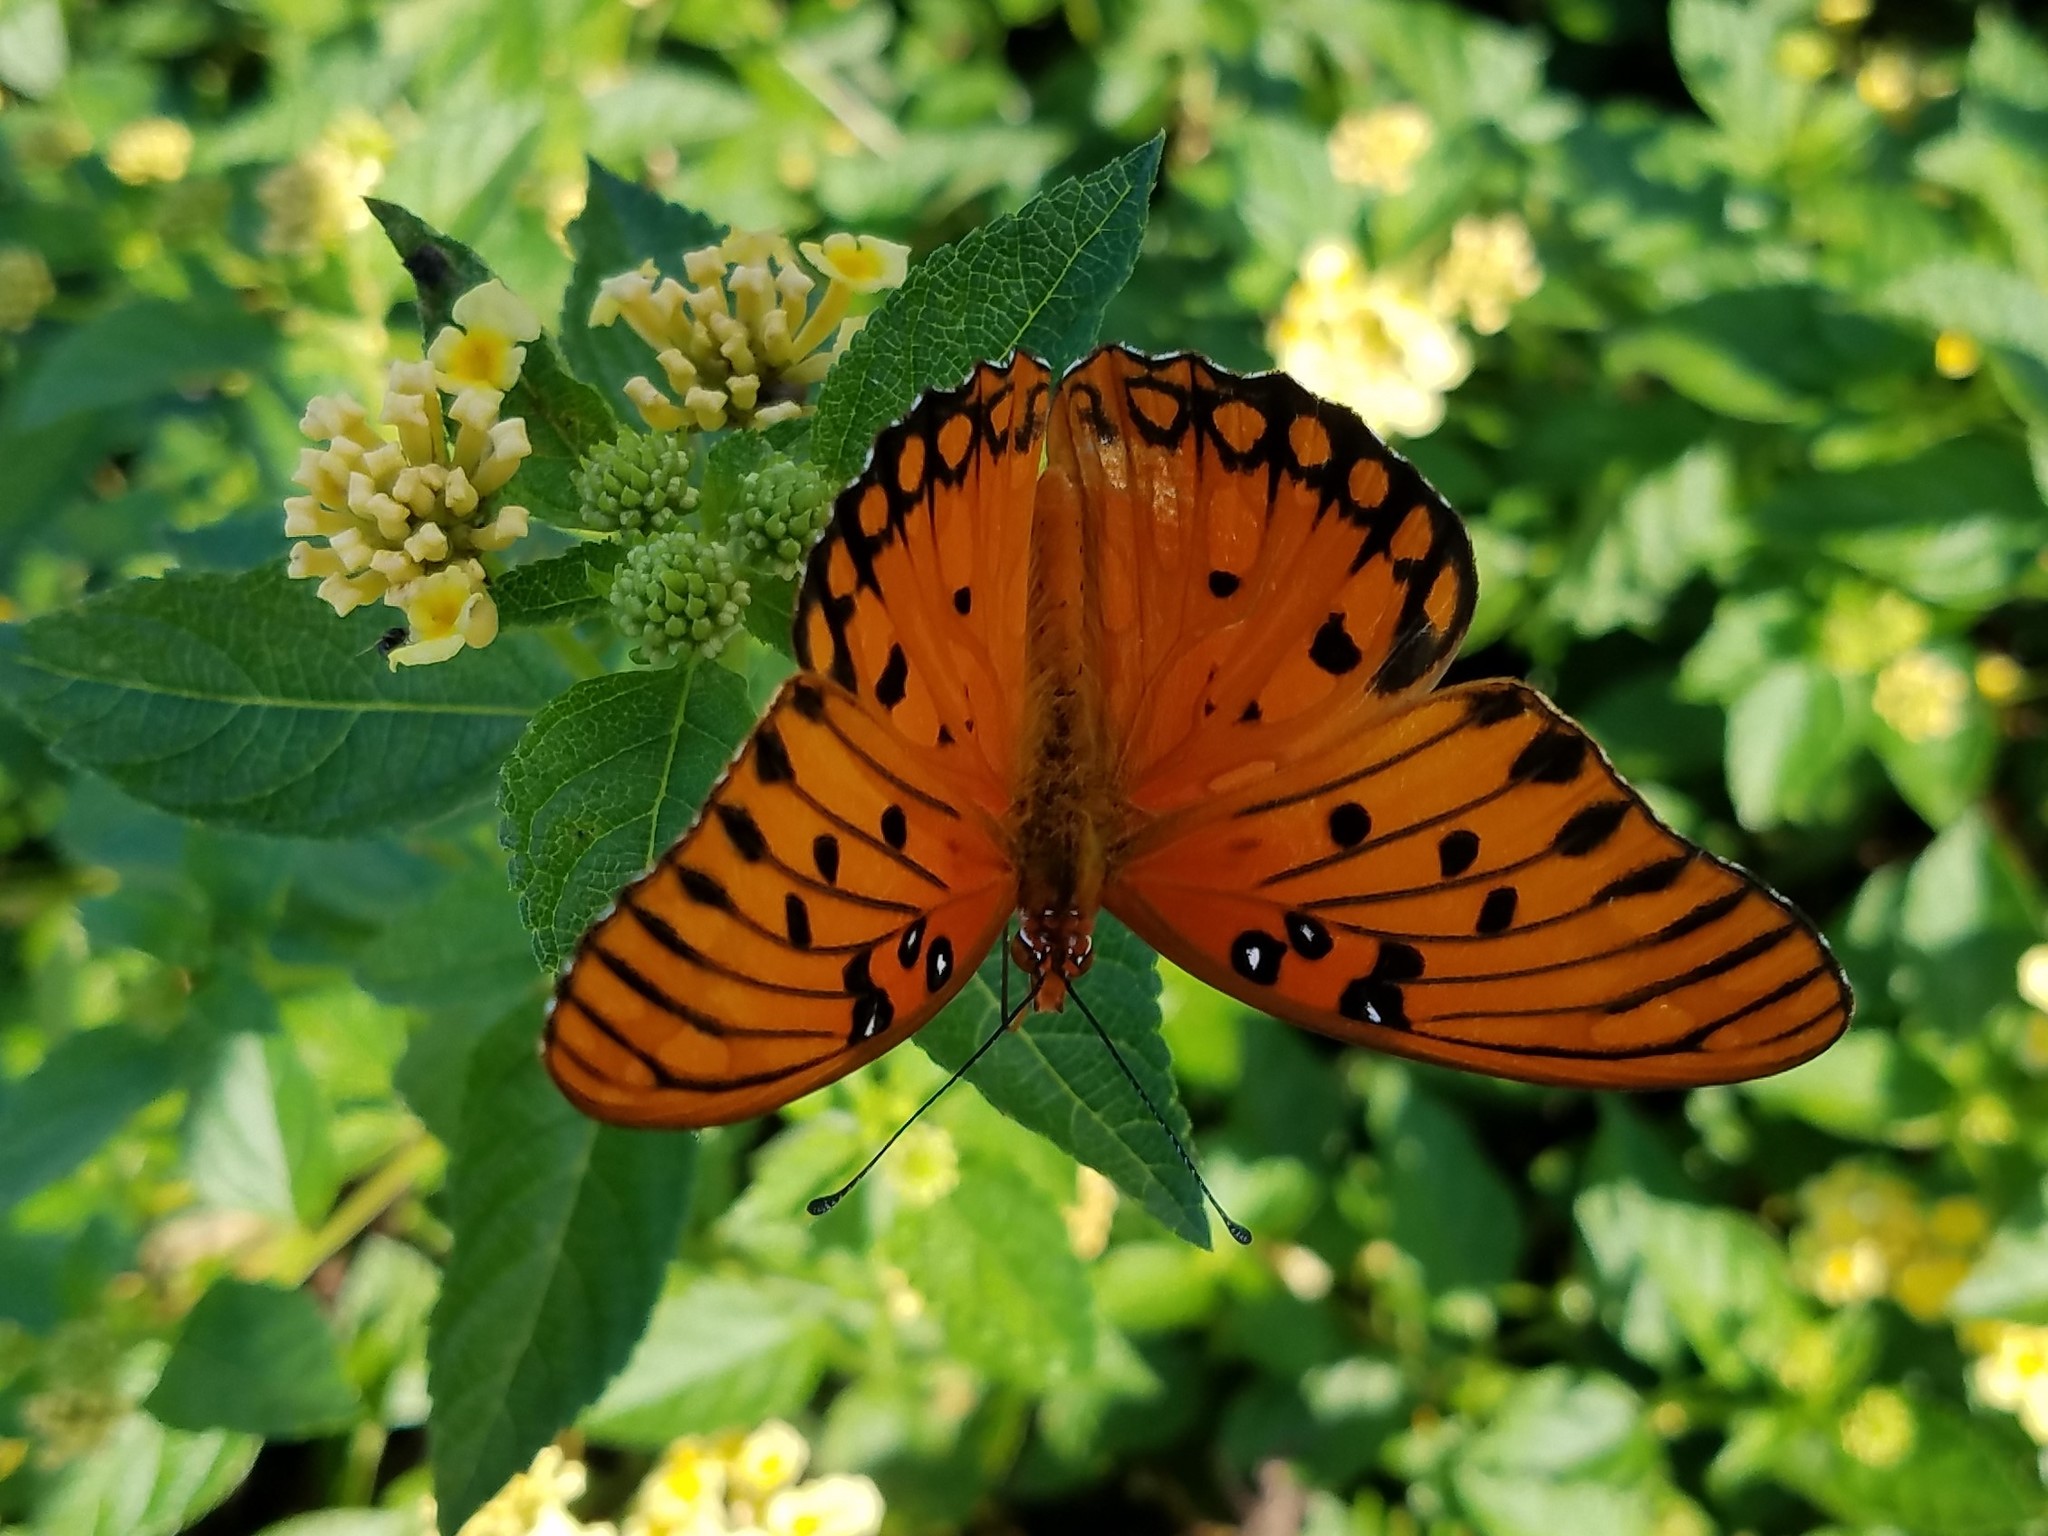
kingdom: Animalia
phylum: Arthropoda
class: Insecta
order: Lepidoptera
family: Nymphalidae
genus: Dione
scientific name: Dione vanillae
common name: Gulf fritillary
